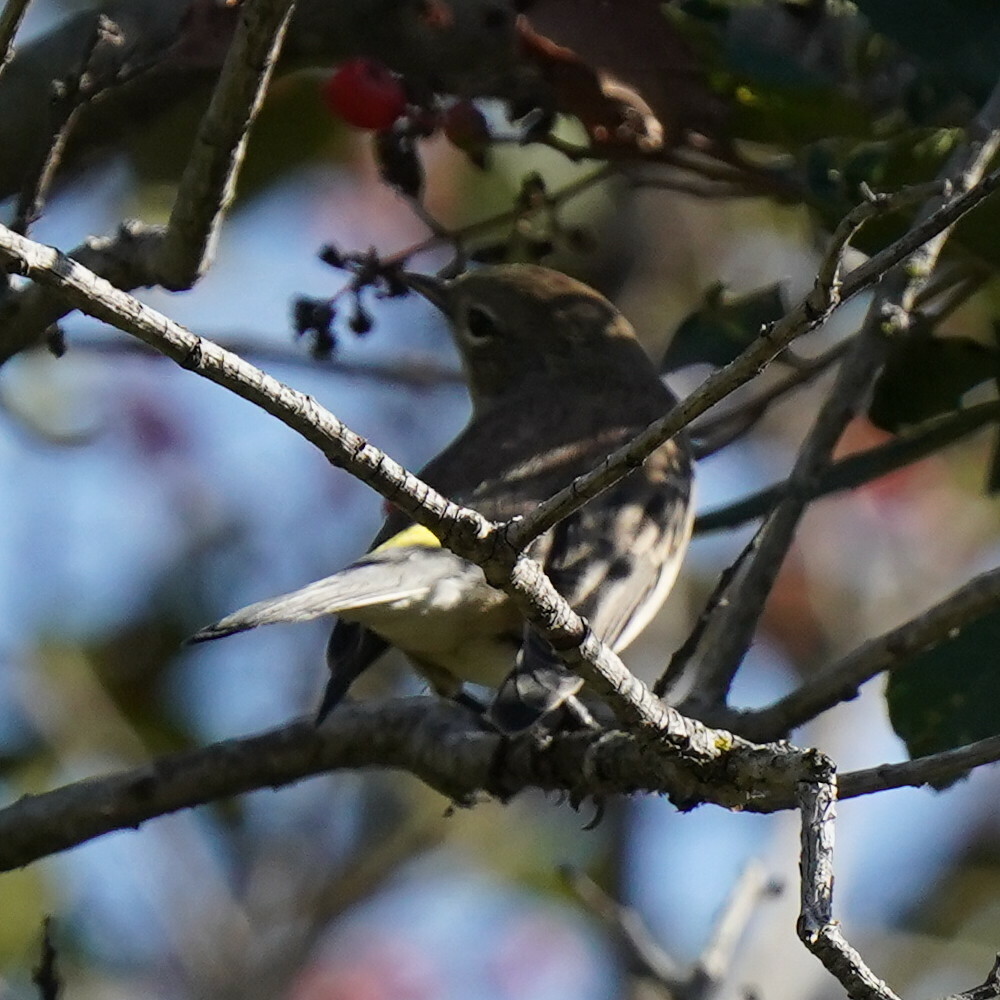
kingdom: Animalia
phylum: Chordata
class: Aves
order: Passeriformes
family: Parulidae
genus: Setophaga
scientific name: Setophaga coronata
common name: Myrtle warbler
